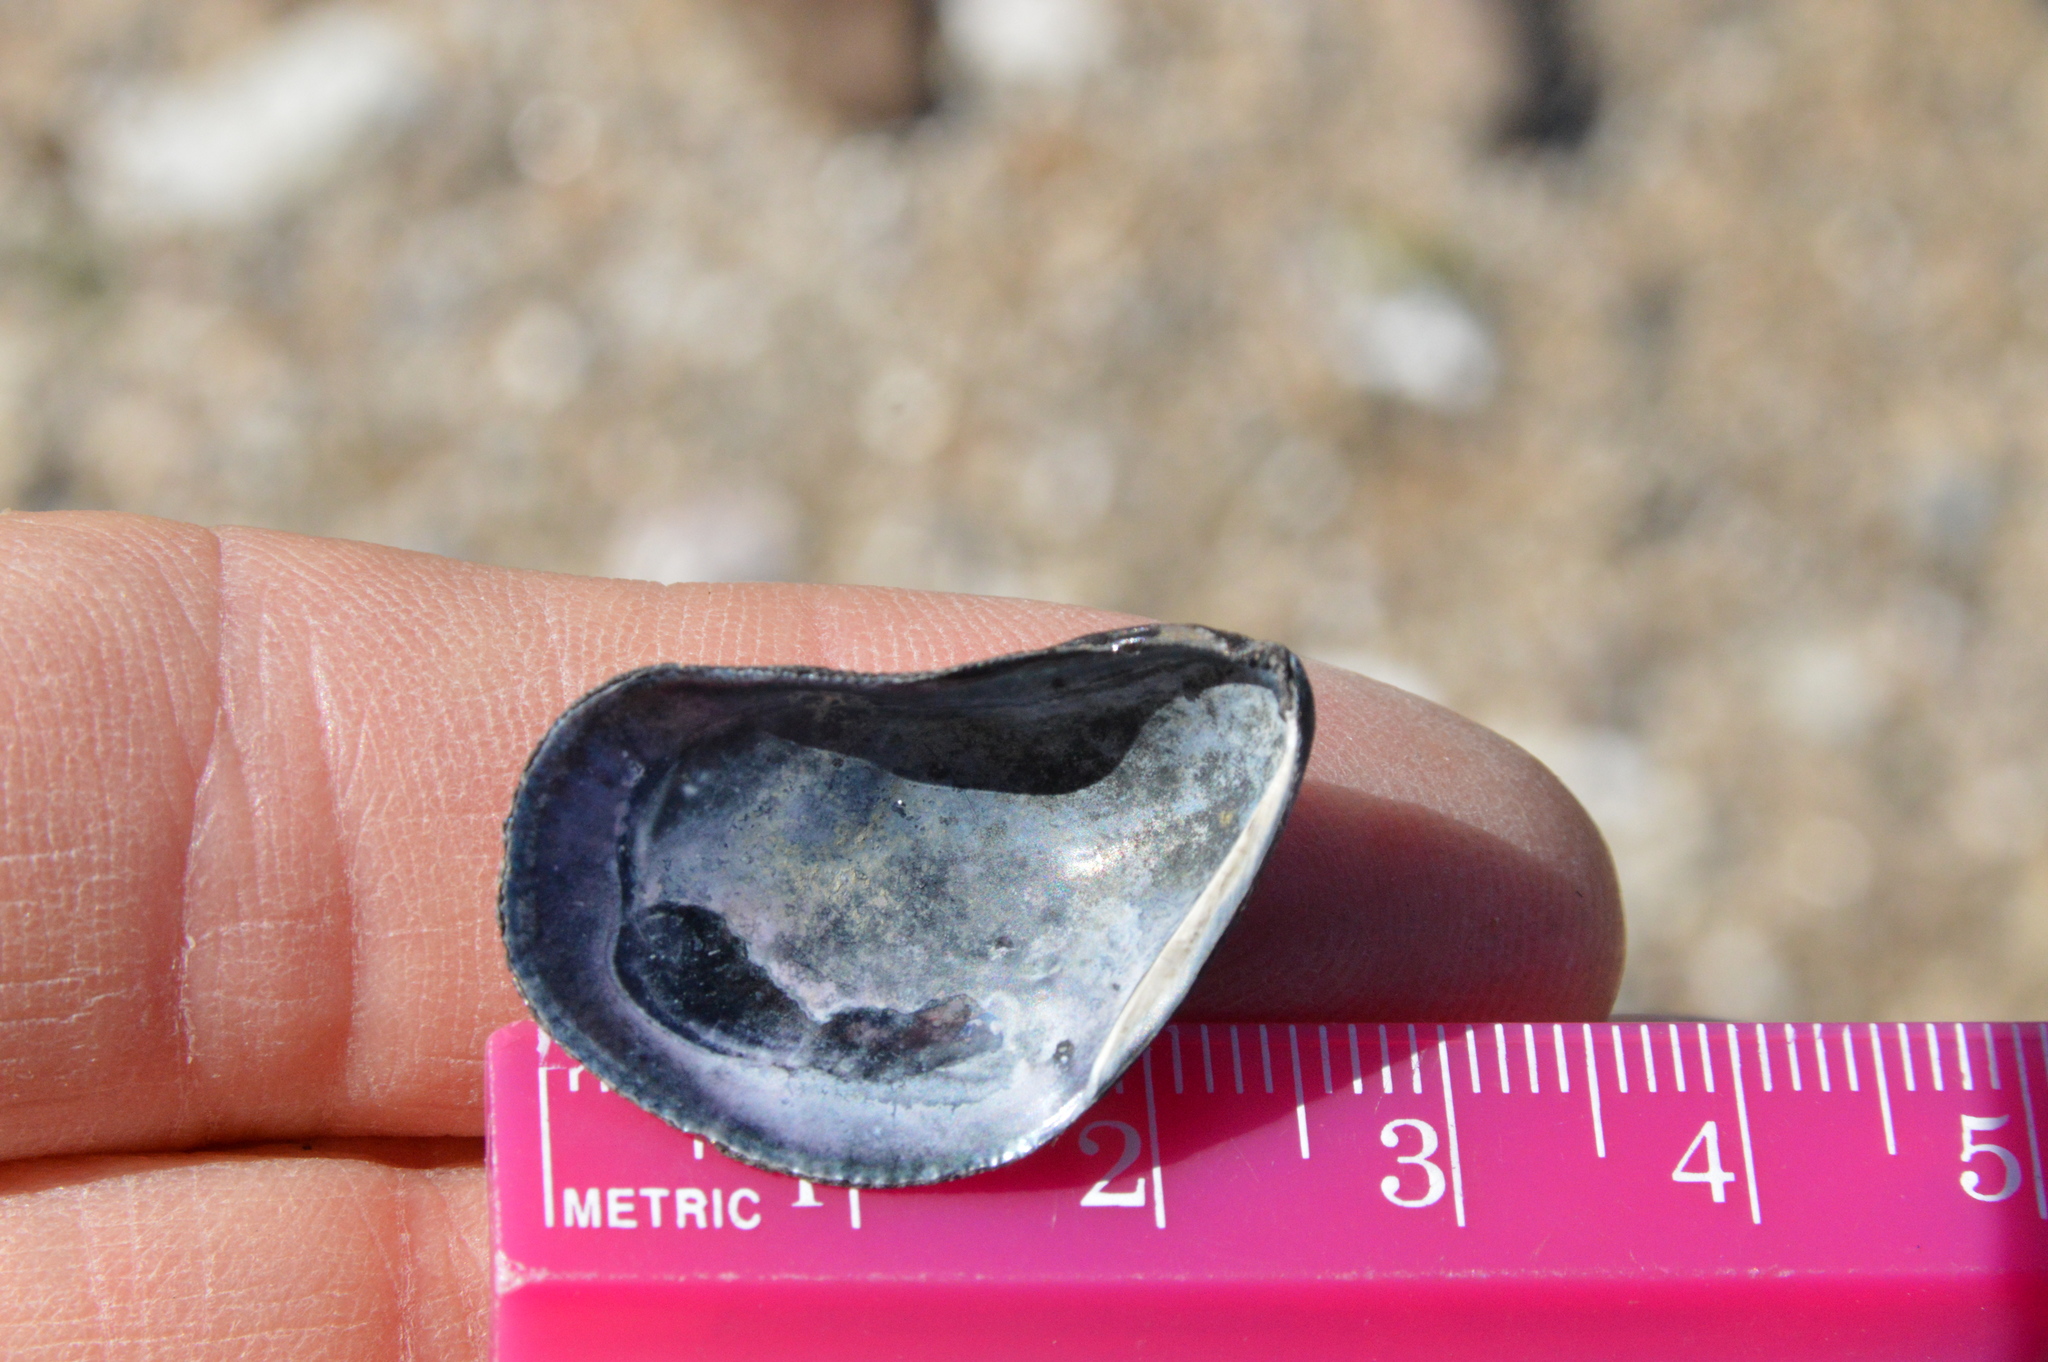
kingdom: Animalia
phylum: Mollusca
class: Bivalvia
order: Mytilida
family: Mytilidae
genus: Ischadium
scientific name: Ischadium recurvum
